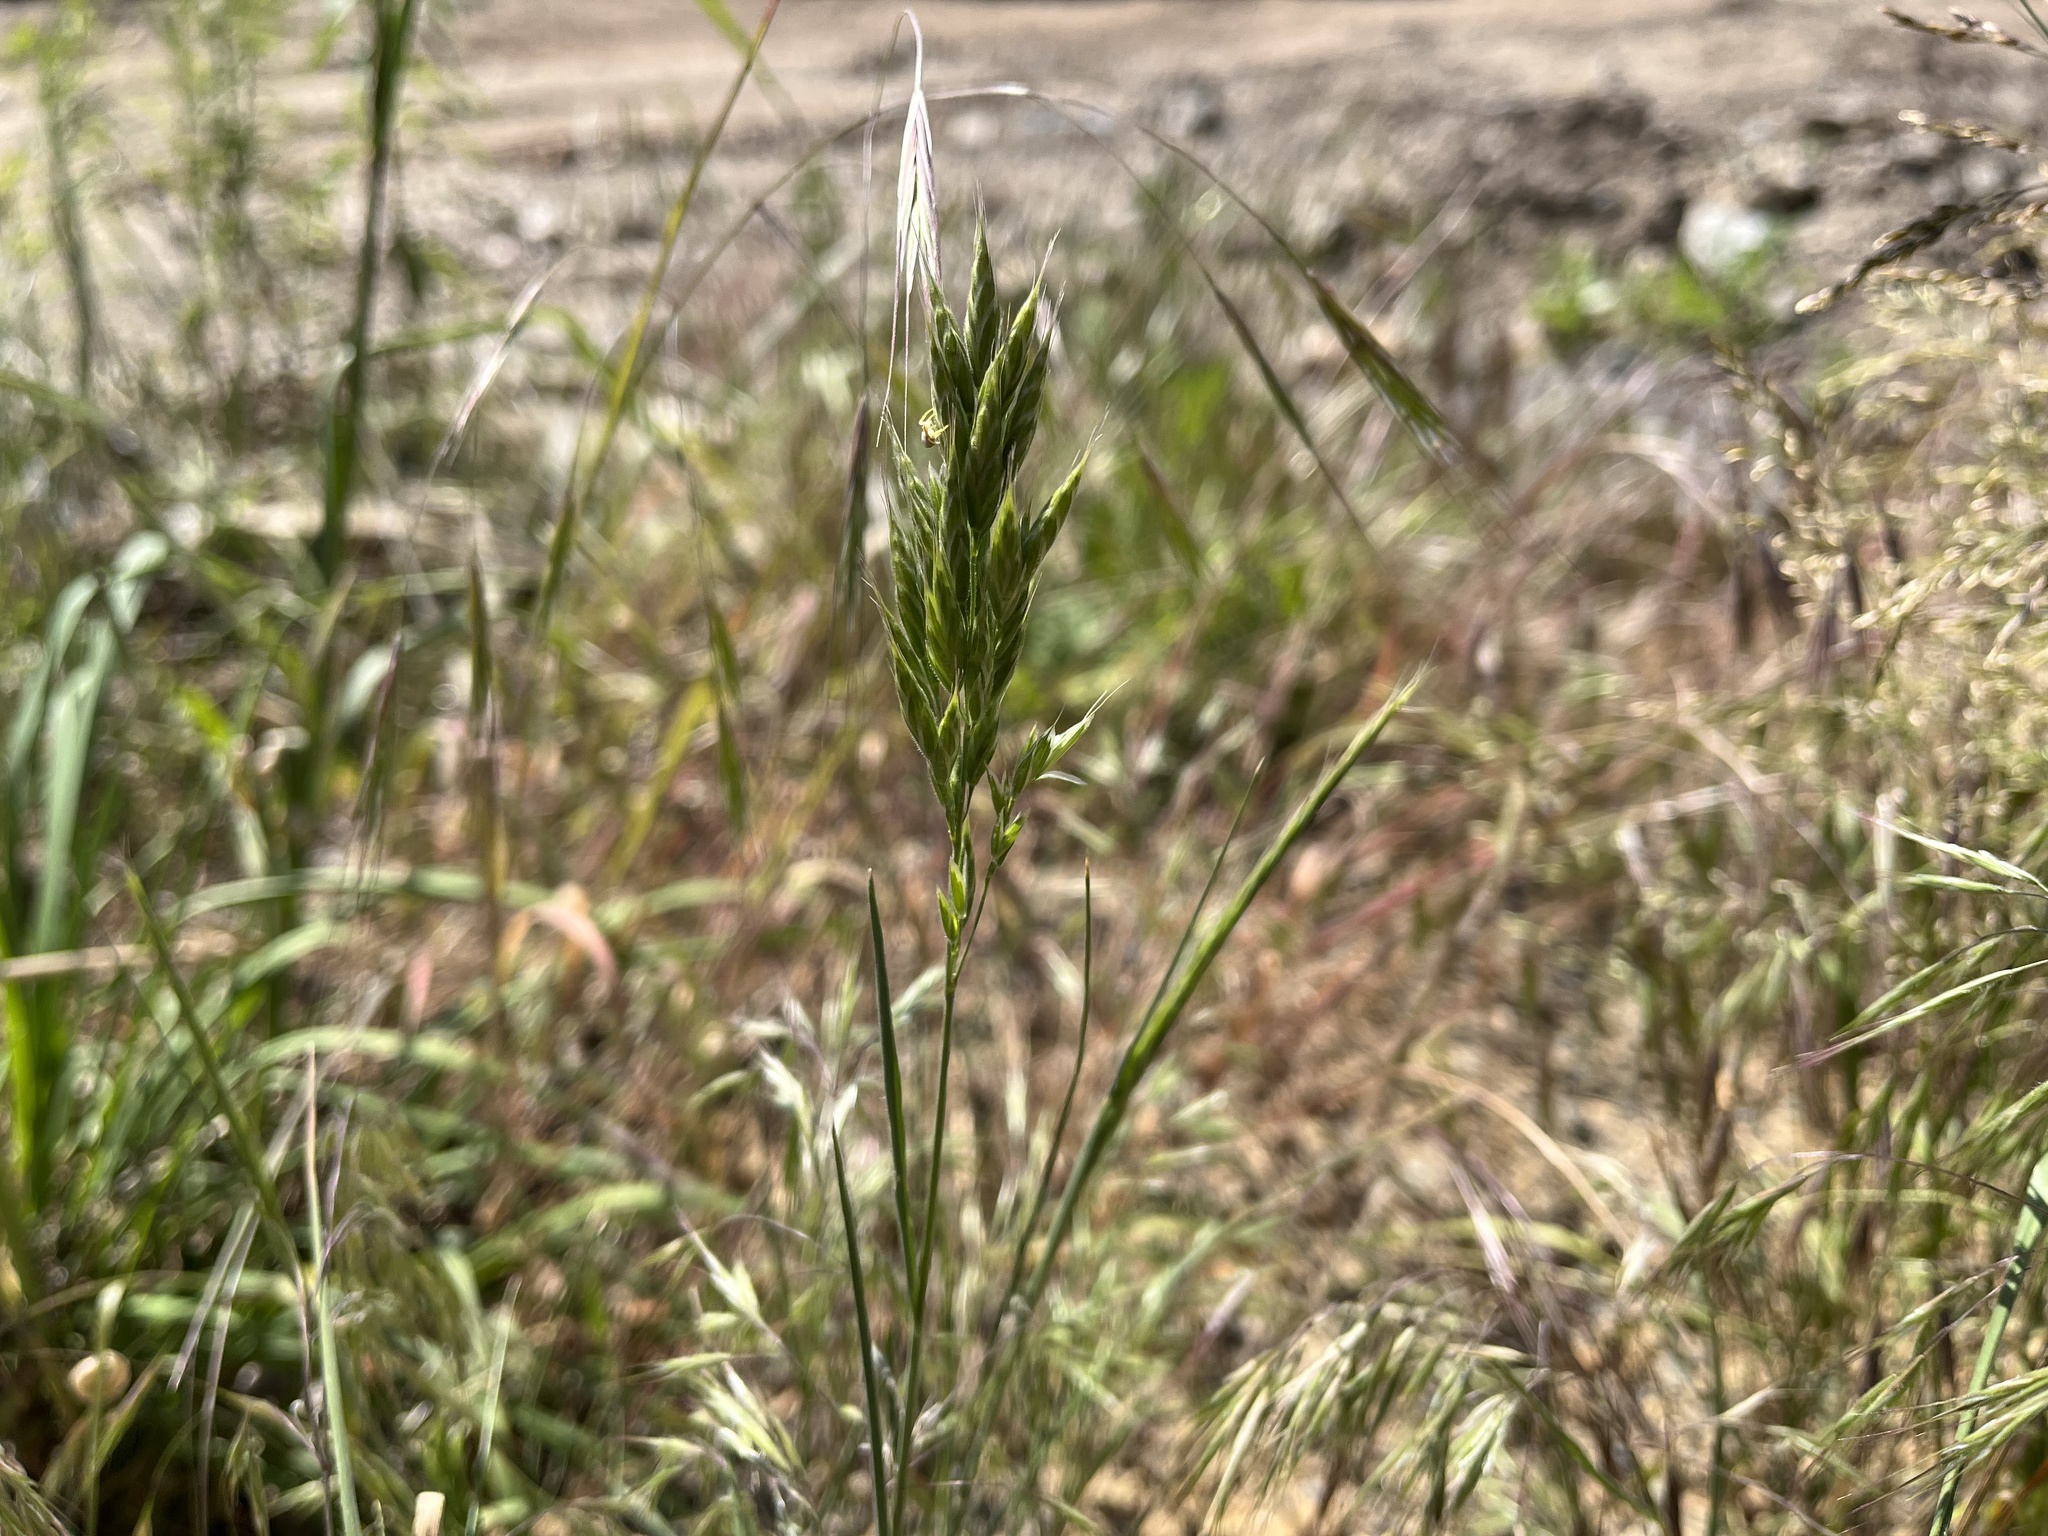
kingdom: Plantae
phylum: Tracheophyta
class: Liliopsida
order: Poales
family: Poaceae
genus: Bromus
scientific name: Bromus hordeaceus
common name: Soft brome
